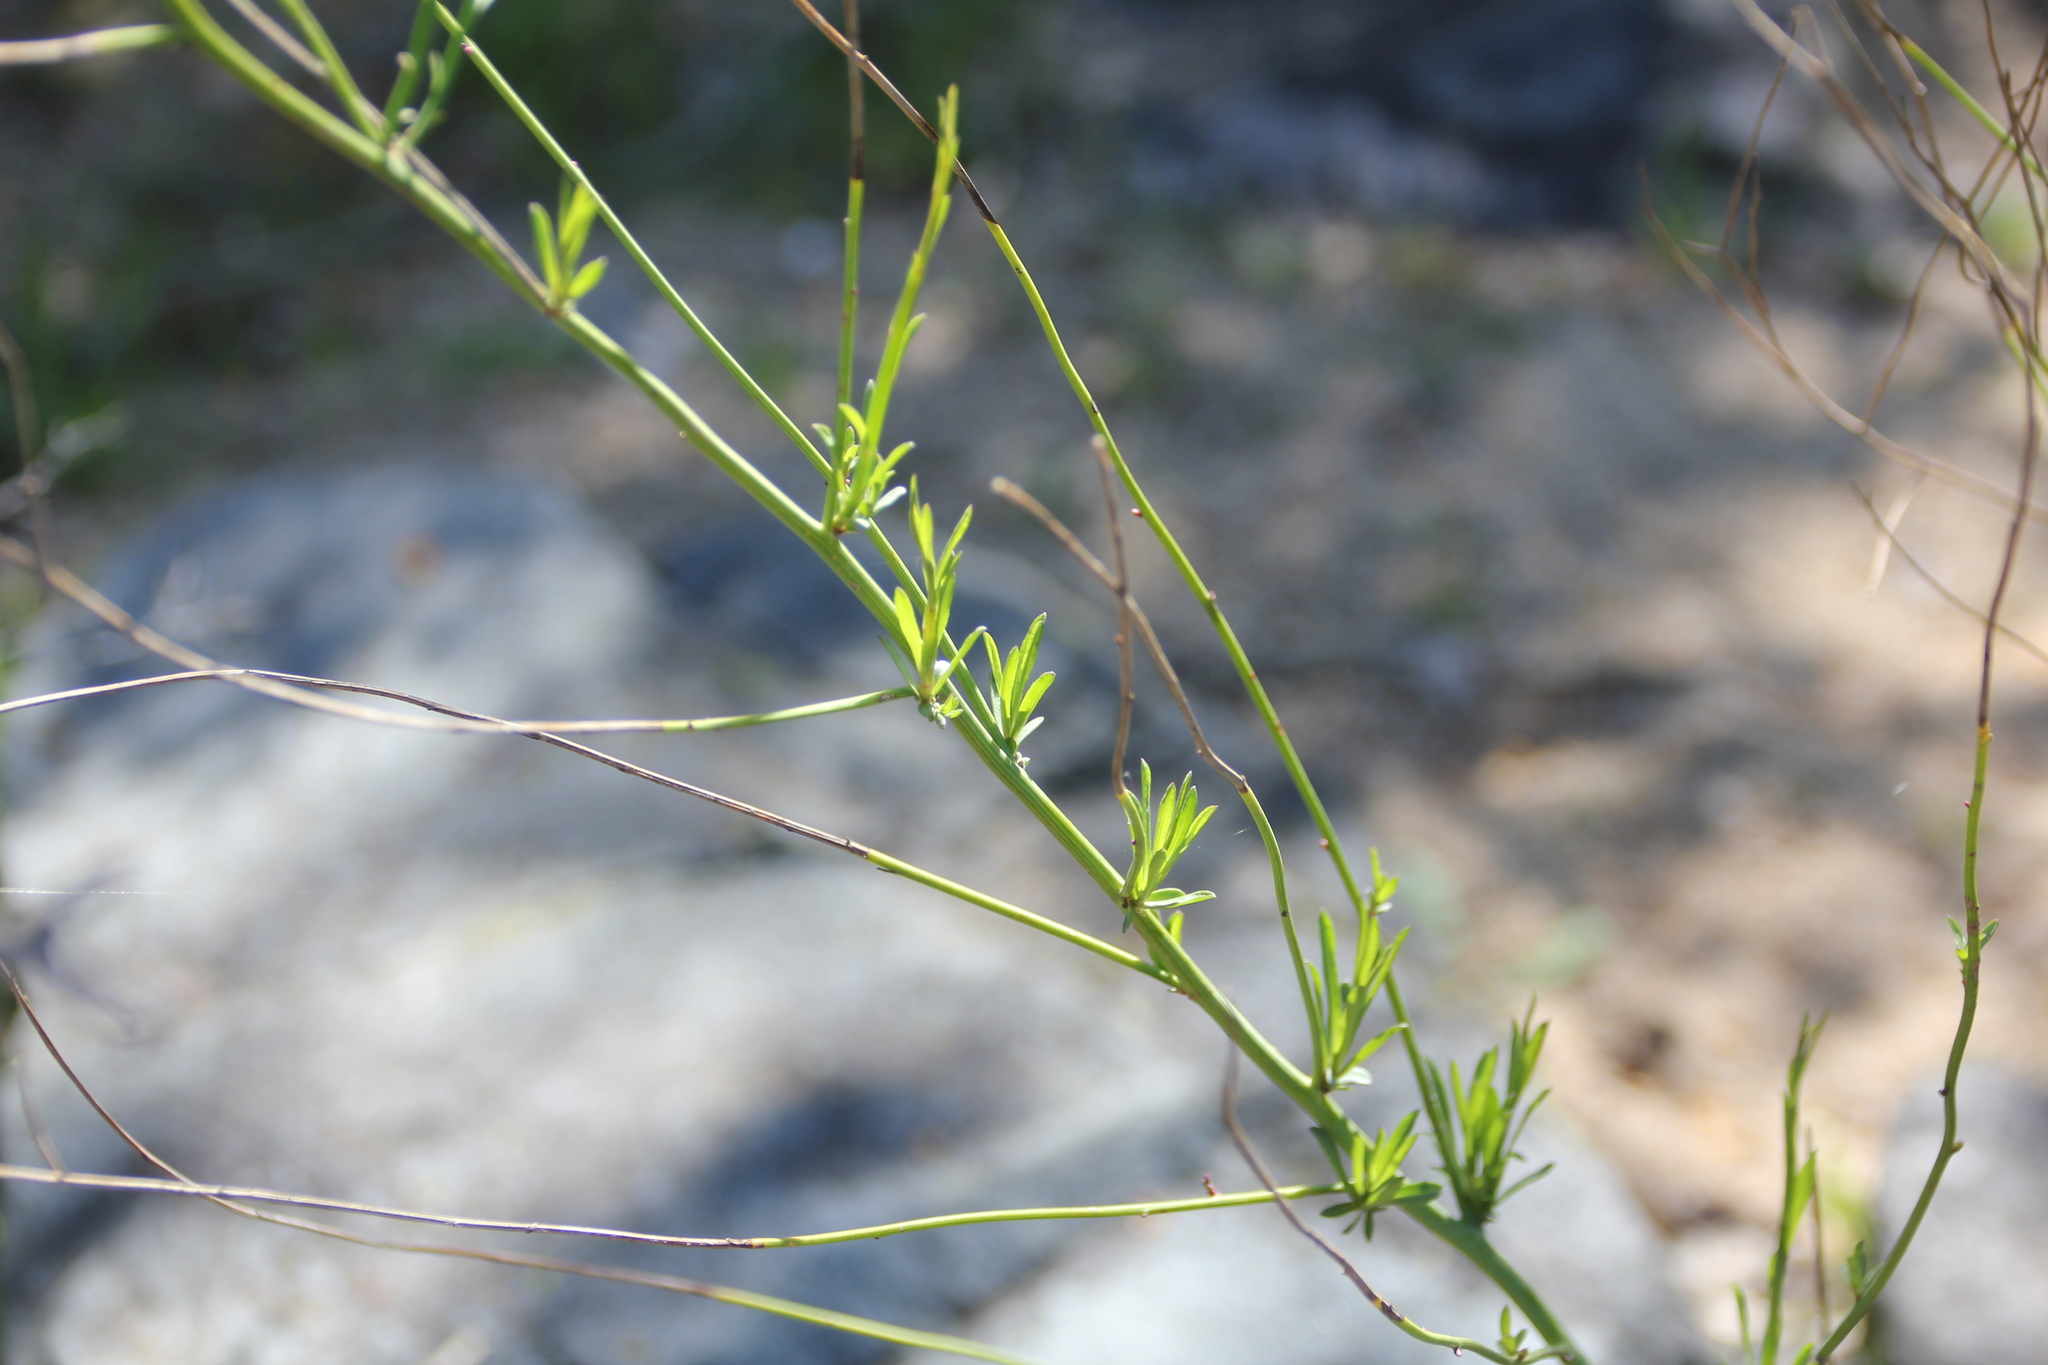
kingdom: Plantae
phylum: Tracheophyta
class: Magnoliopsida
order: Asterales
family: Asteraceae
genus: Chloracantha
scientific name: Chloracantha spinosa
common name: Mexican devilweed
